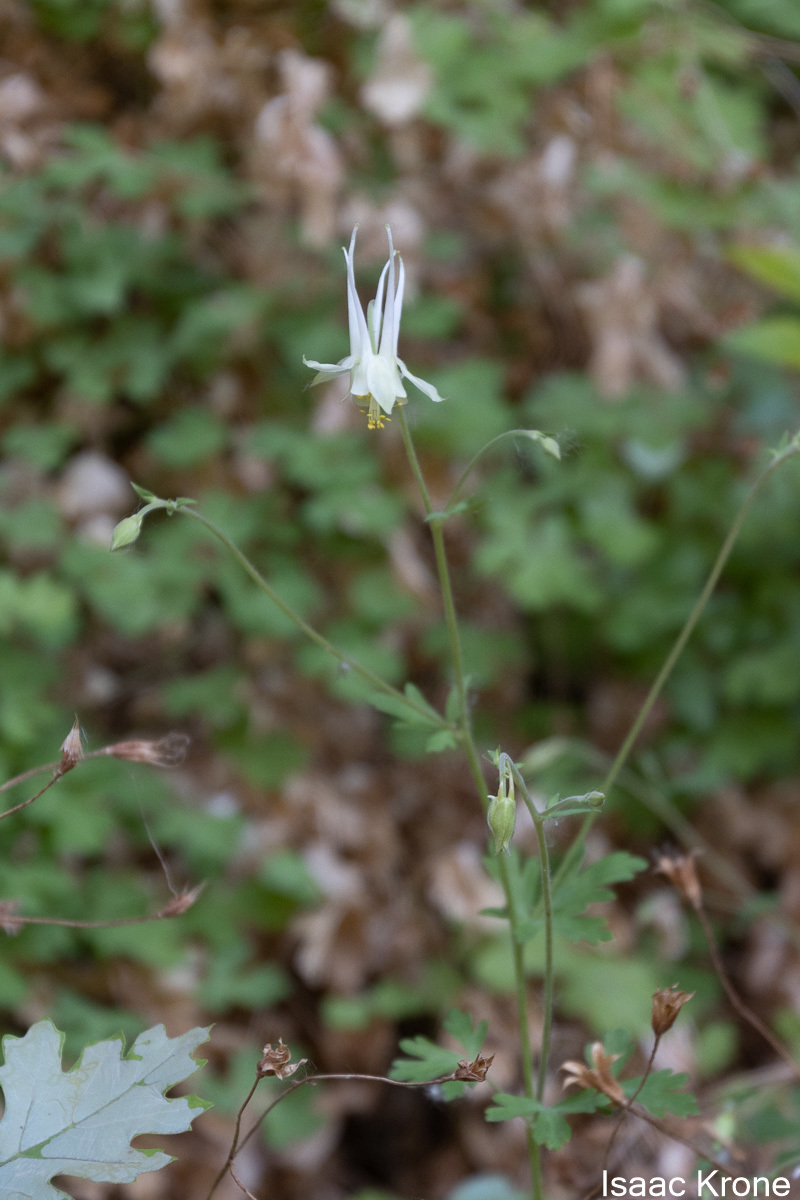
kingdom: Plantae
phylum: Tracheophyta
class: Magnoliopsida
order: Ranunculales
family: Ranunculaceae
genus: Aquilegia
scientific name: Aquilegia micrantha
